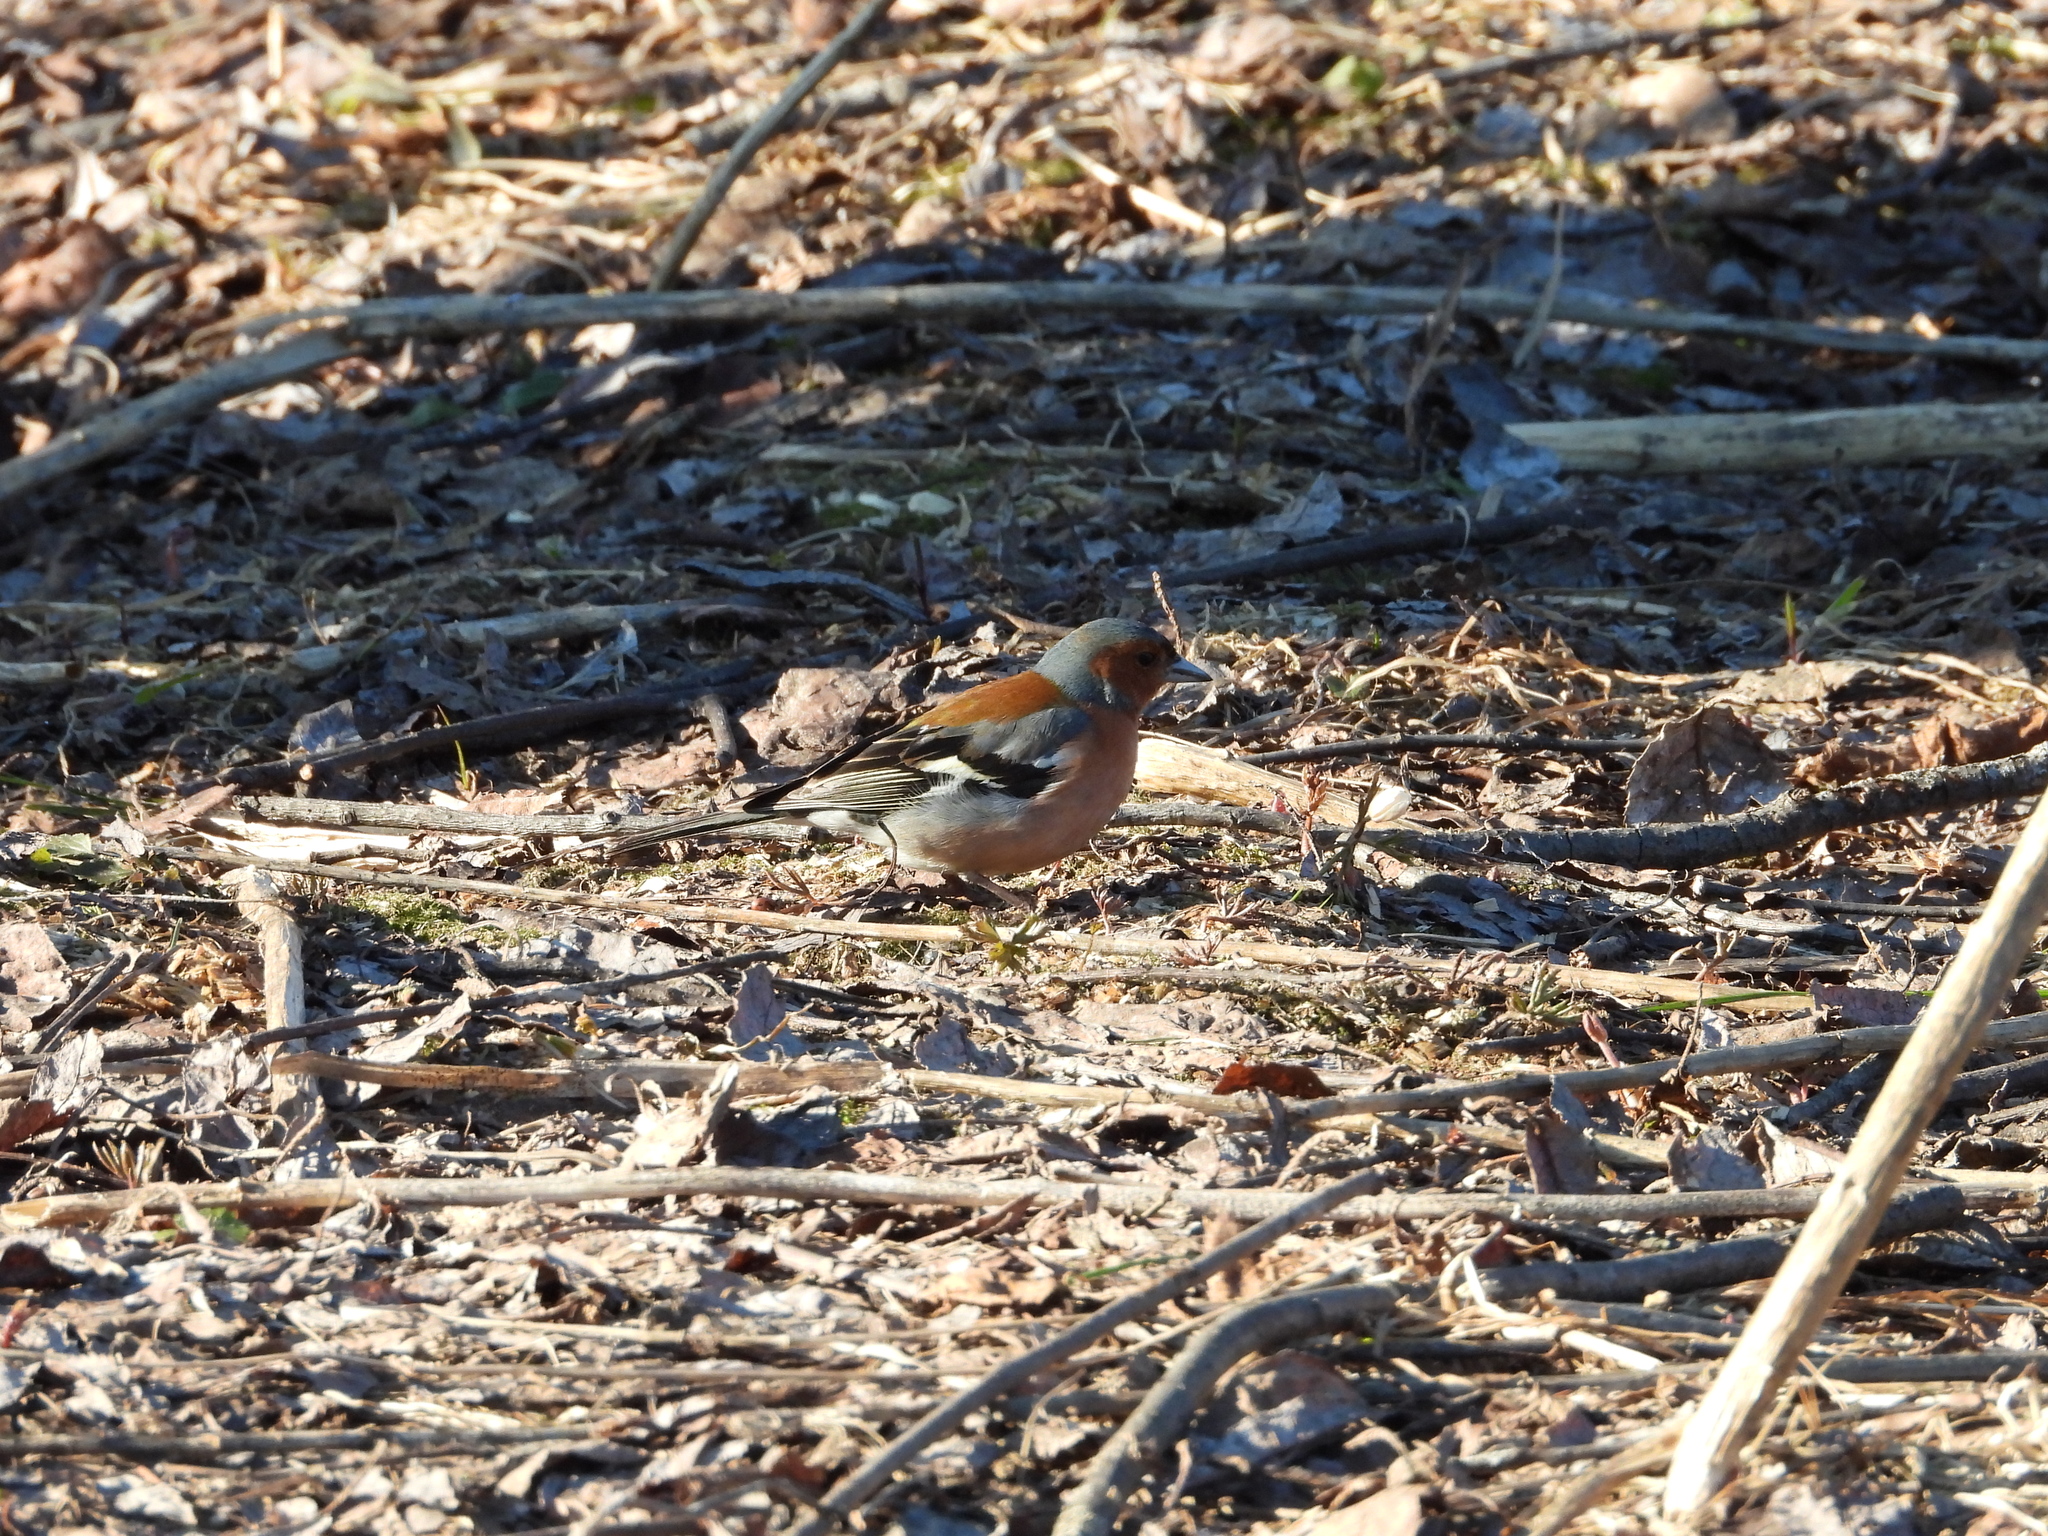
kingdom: Animalia
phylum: Chordata
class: Aves
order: Passeriformes
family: Fringillidae
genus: Fringilla
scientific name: Fringilla coelebs
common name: Common chaffinch
